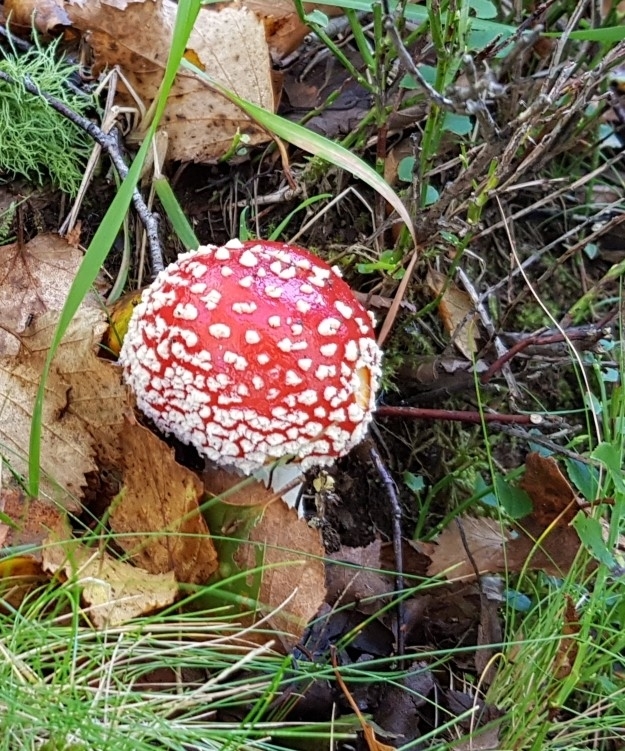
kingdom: Fungi
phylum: Basidiomycota
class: Agaricomycetes
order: Agaricales
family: Amanitaceae
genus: Amanita
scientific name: Amanita muscaria
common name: Fly agaric
